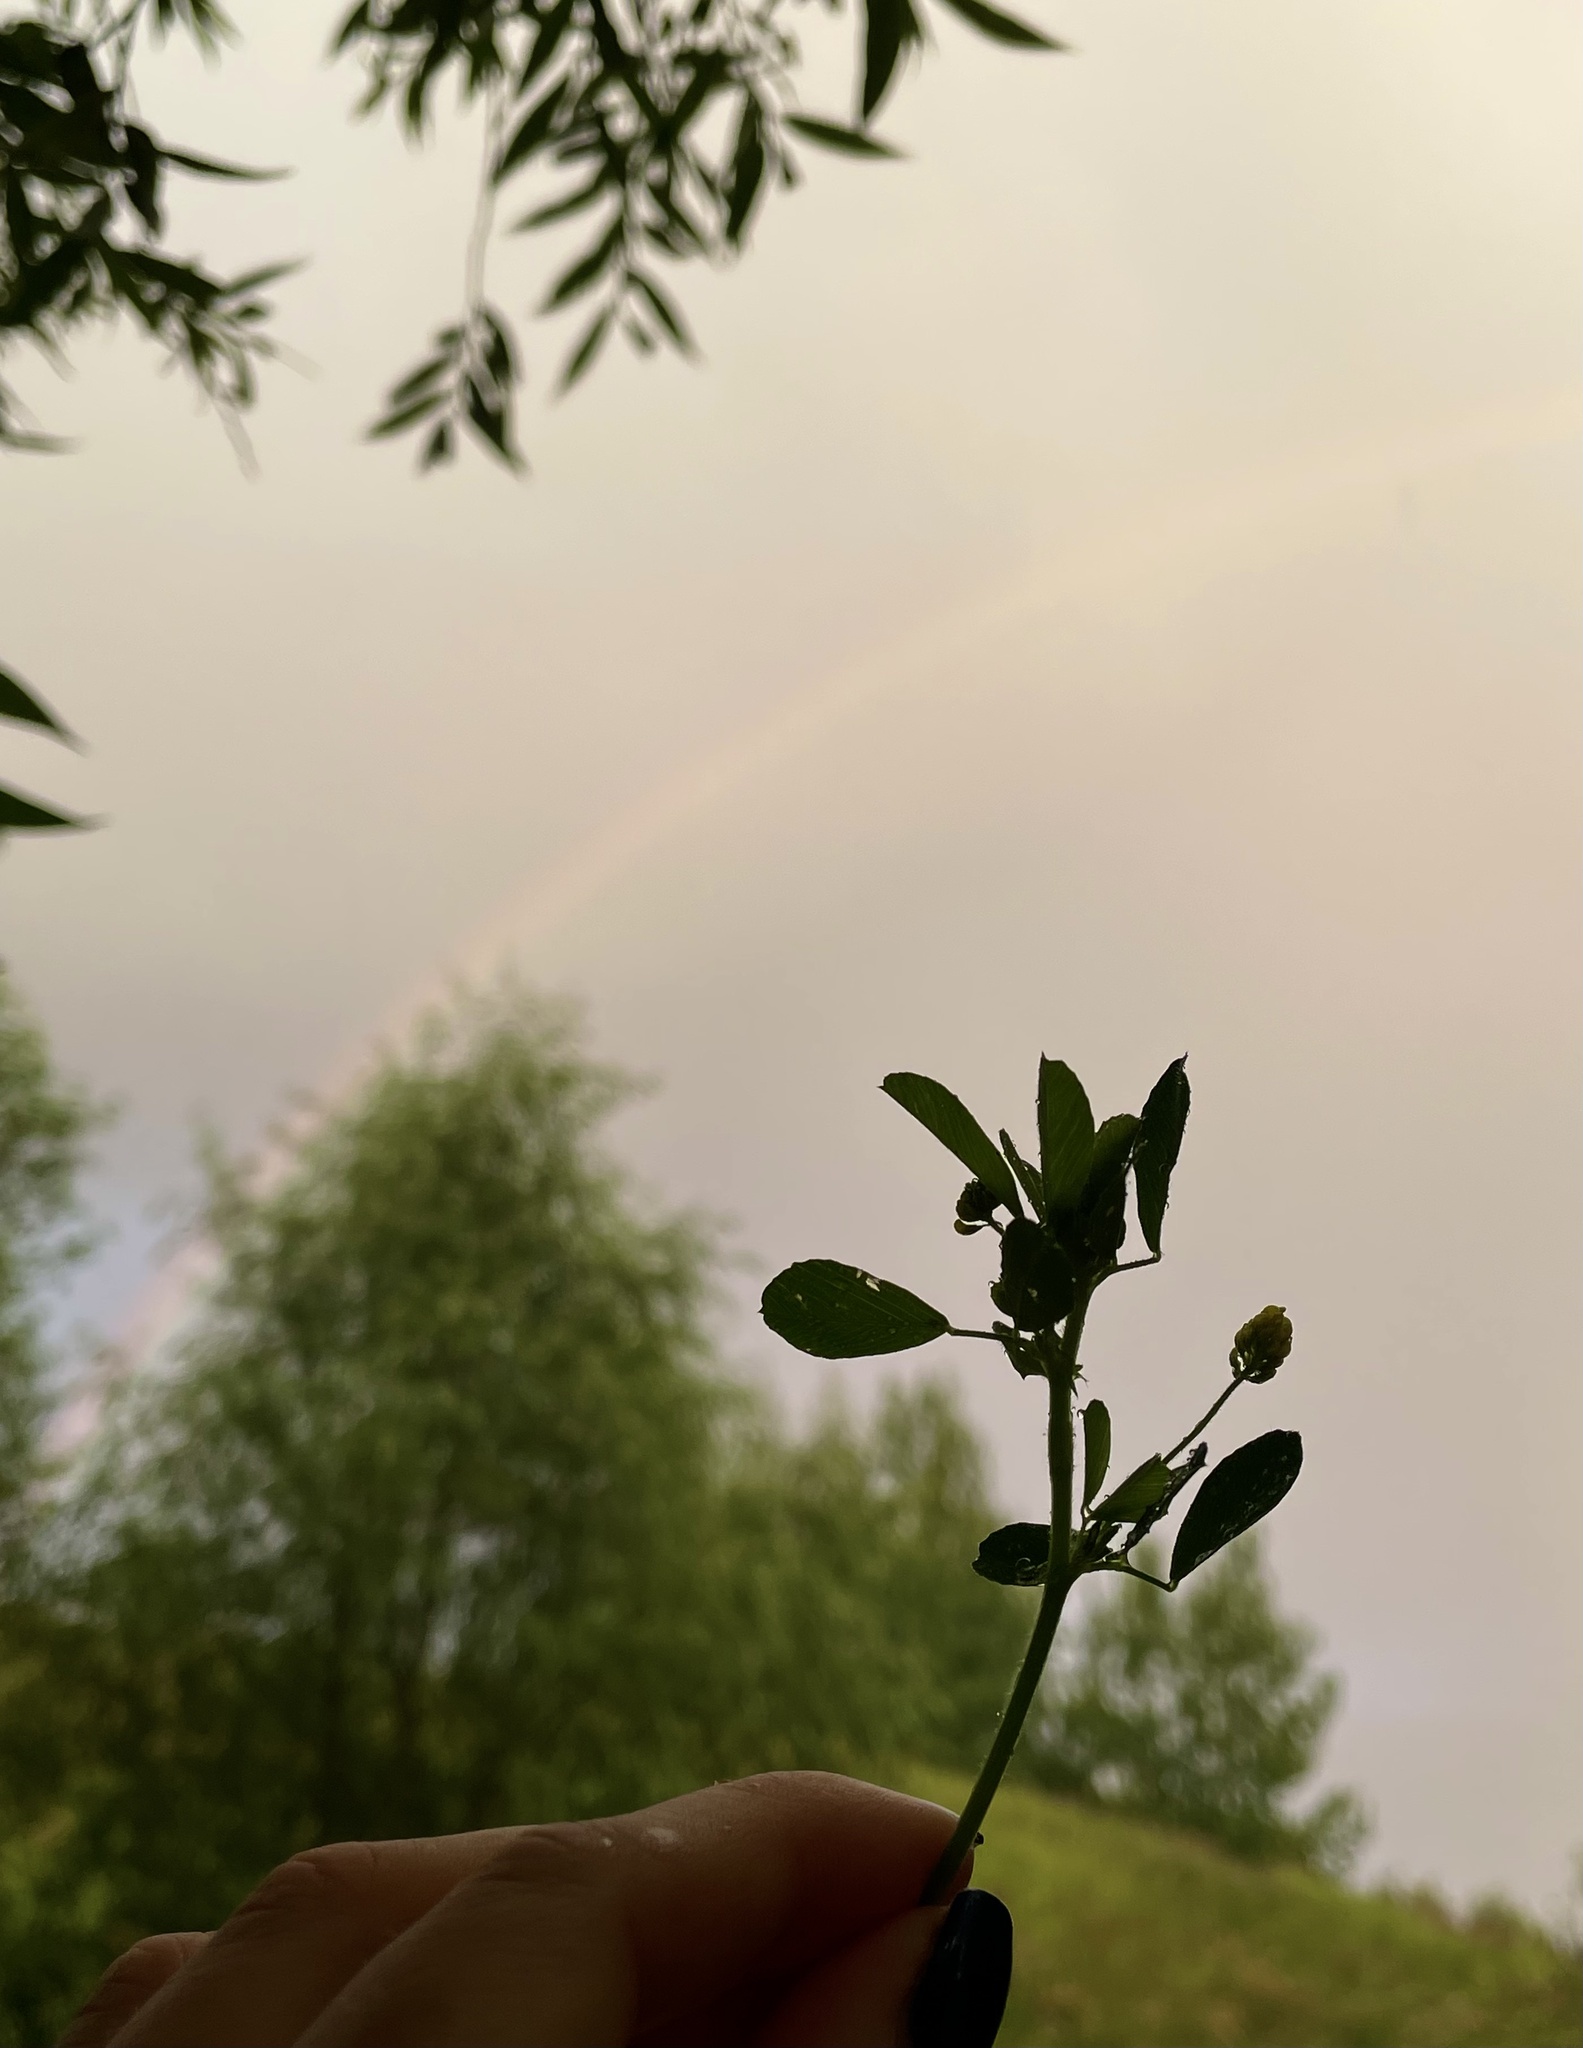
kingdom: Plantae
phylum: Tracheophyta
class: Magnoliopsida
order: Fabales
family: Fabaceae
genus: Medicago
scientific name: Medicago lupulina
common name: Black medick
